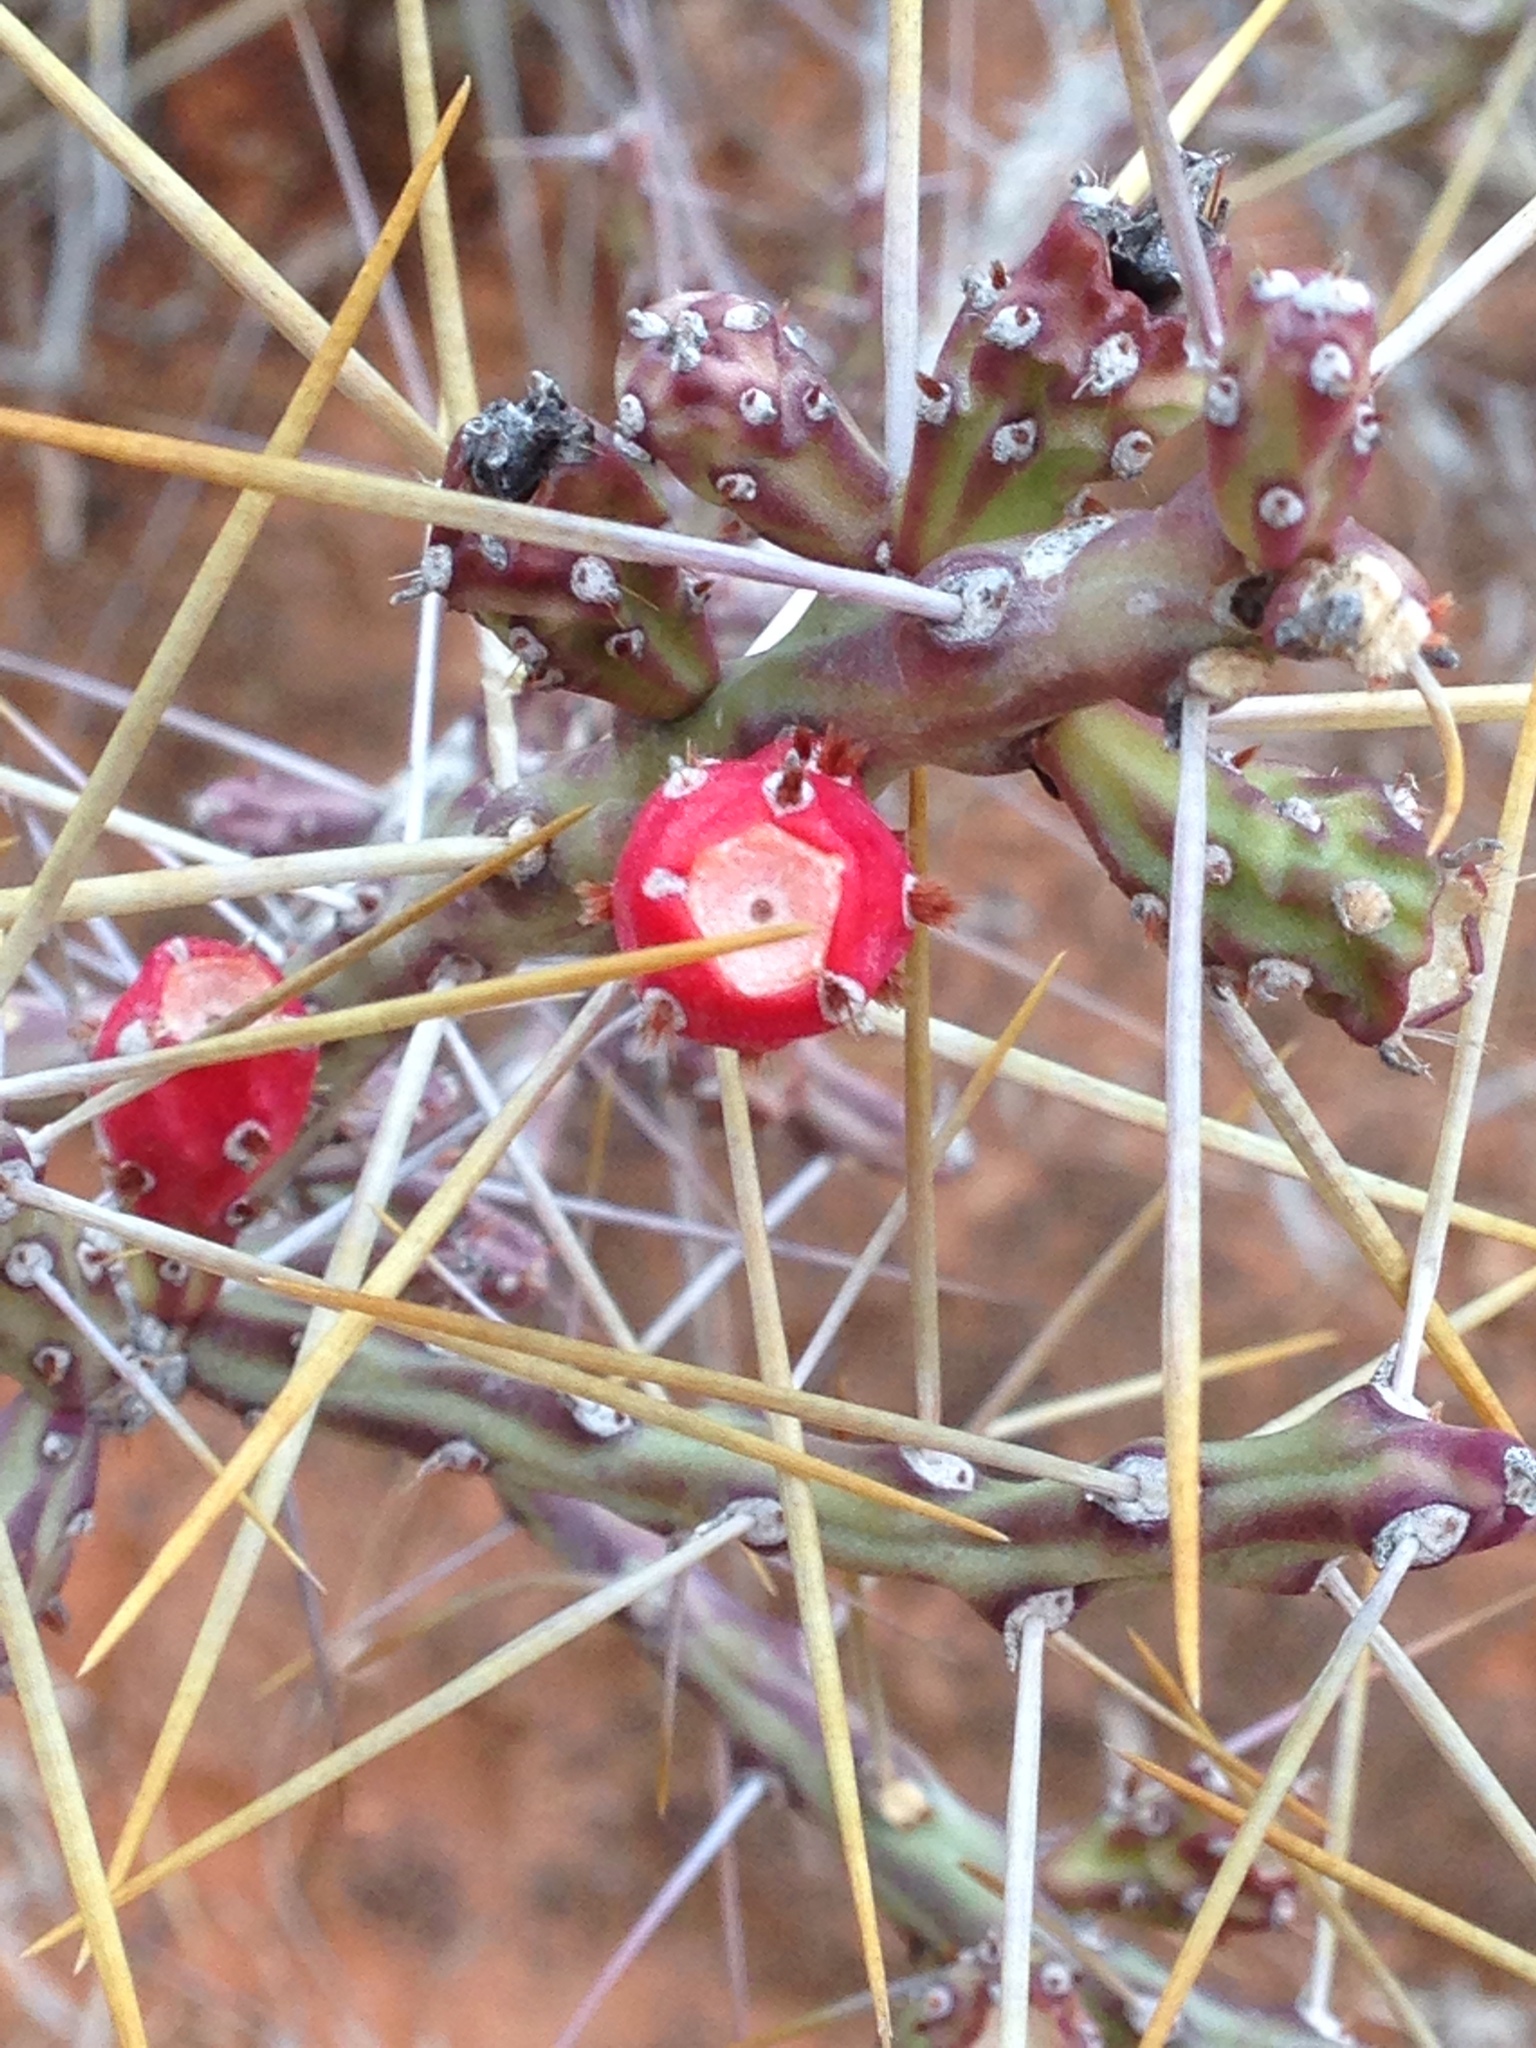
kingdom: Plantae
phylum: Tracheophyta
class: Magnoliopsida
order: Caryophyllales
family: Cactaceae
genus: Cylindropuntia
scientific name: Cylindropuntia leptocaulis
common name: Christmas cactus
